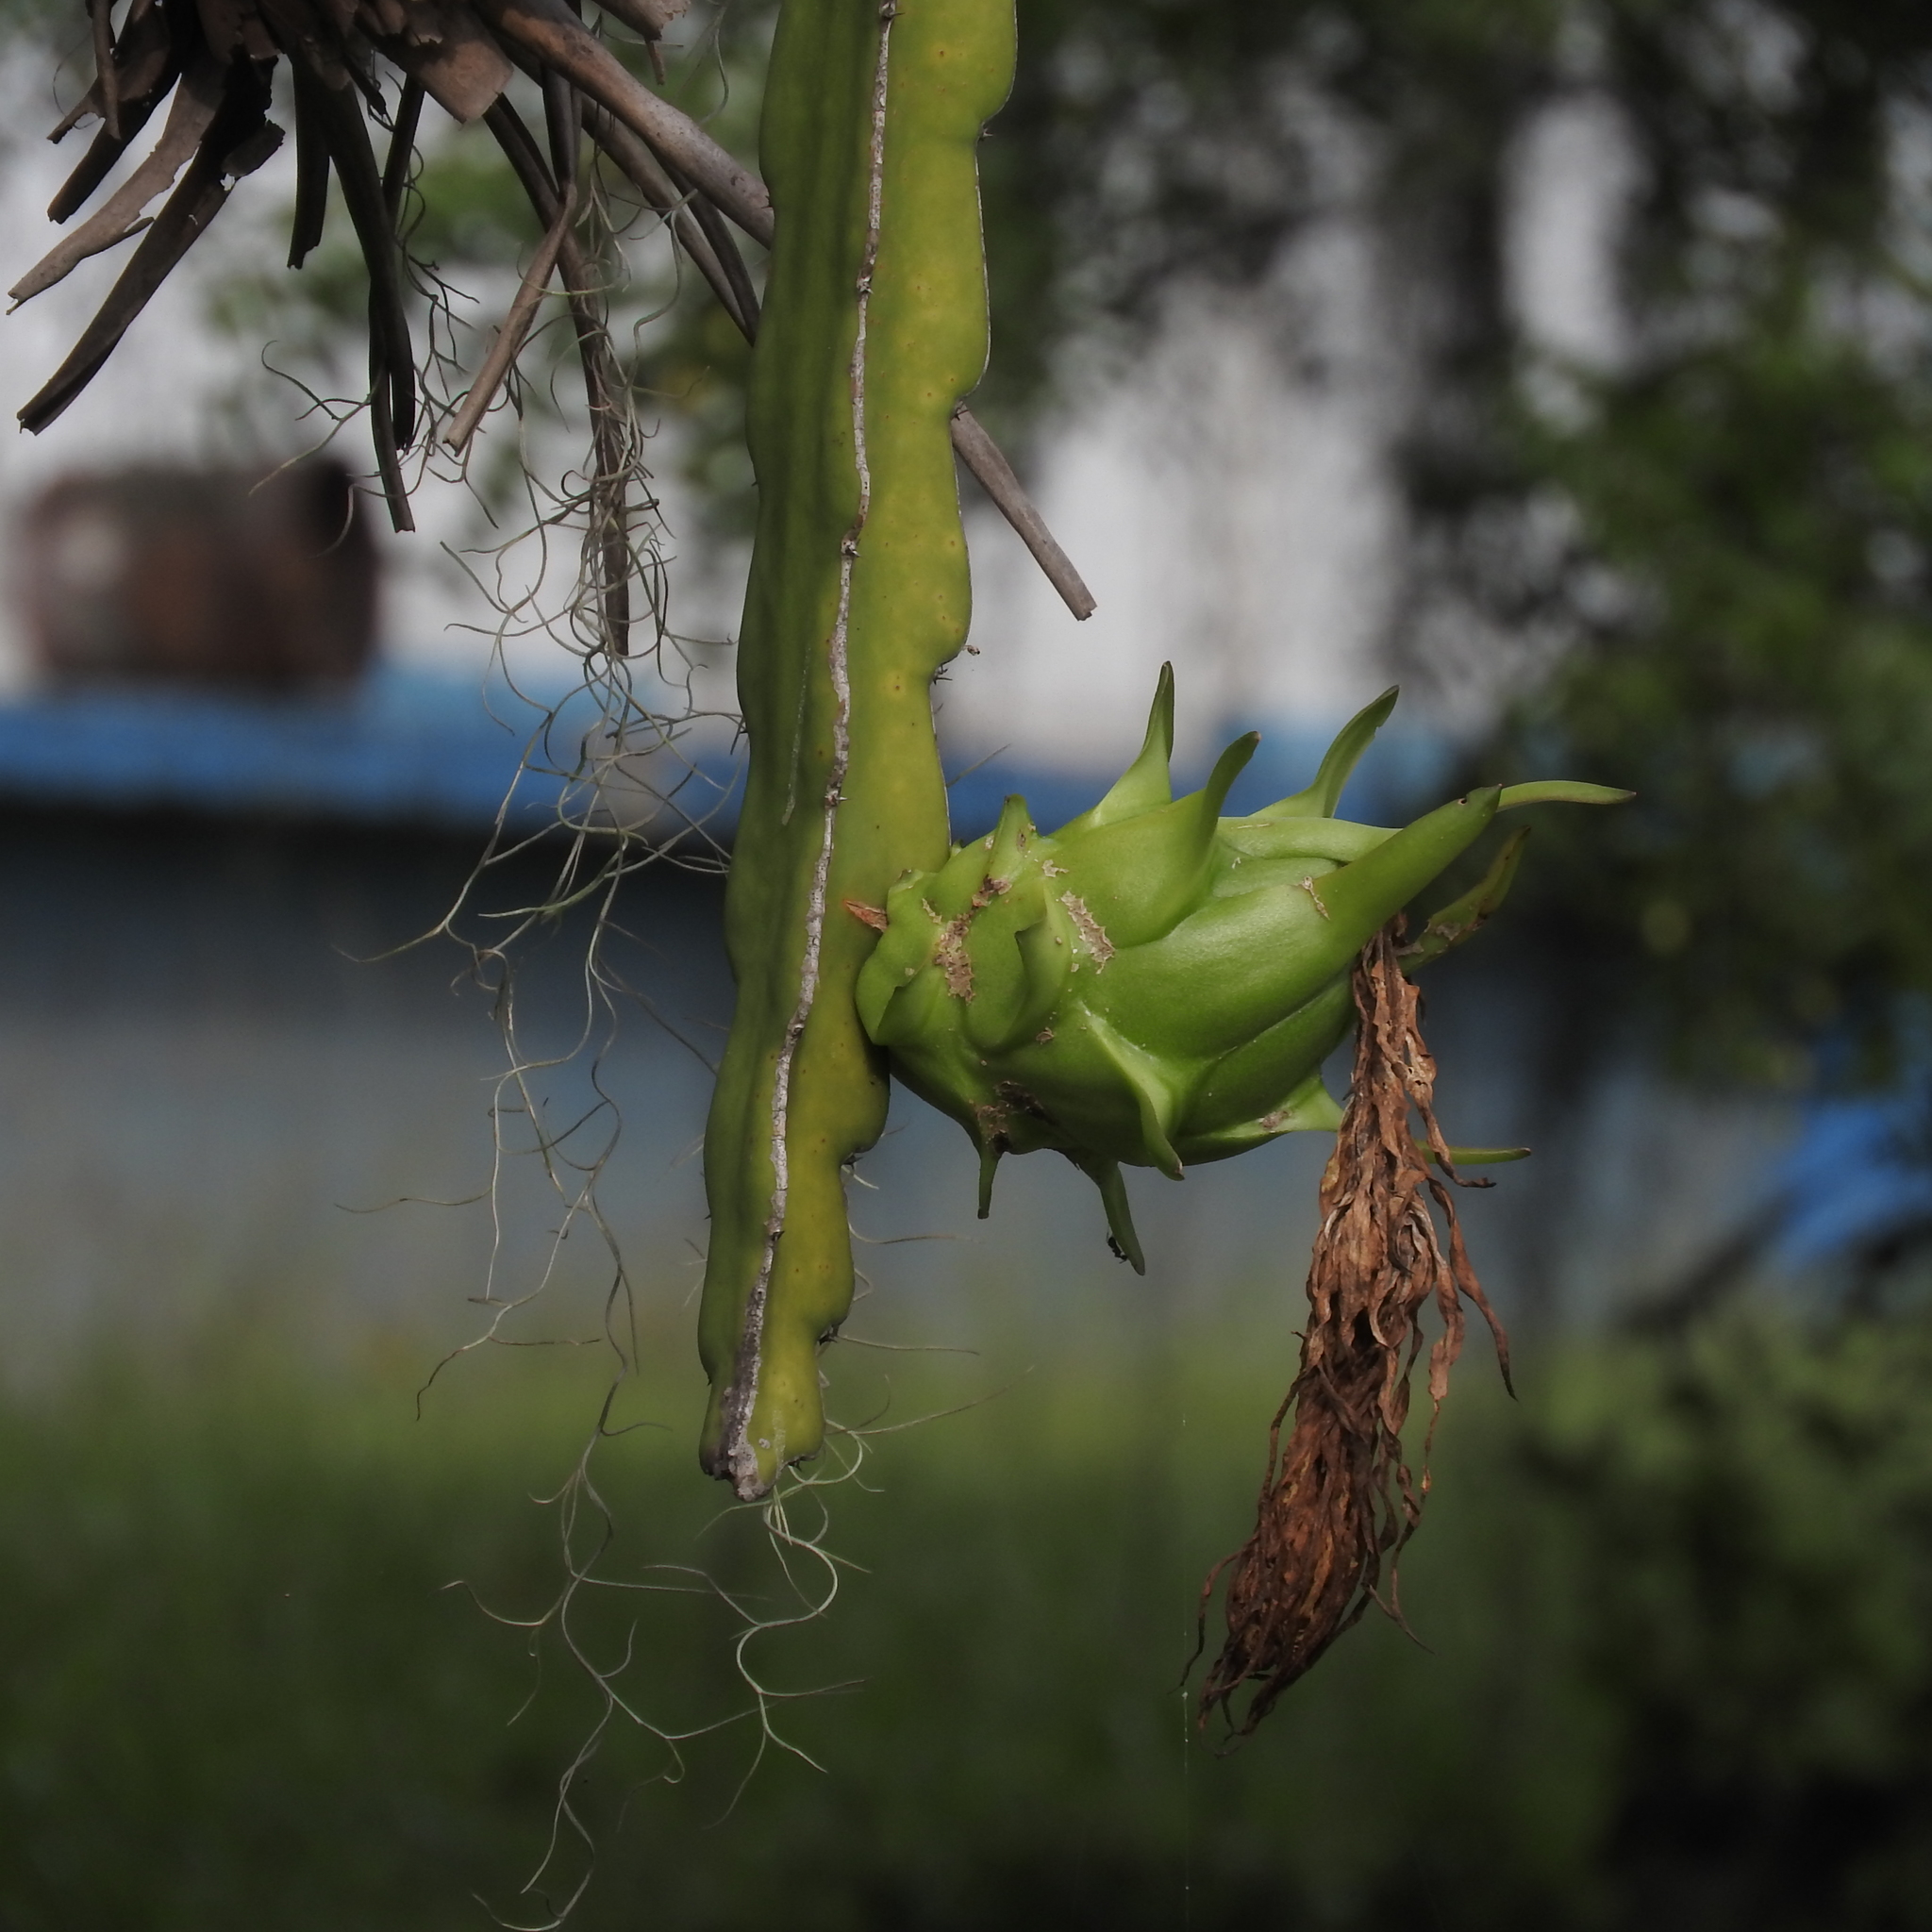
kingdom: Plantae
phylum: Tracheophyta
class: Magnoliopsida
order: Caryophyllales
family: Cactaceae
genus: Selenicereus
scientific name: Selenicereus undatus
